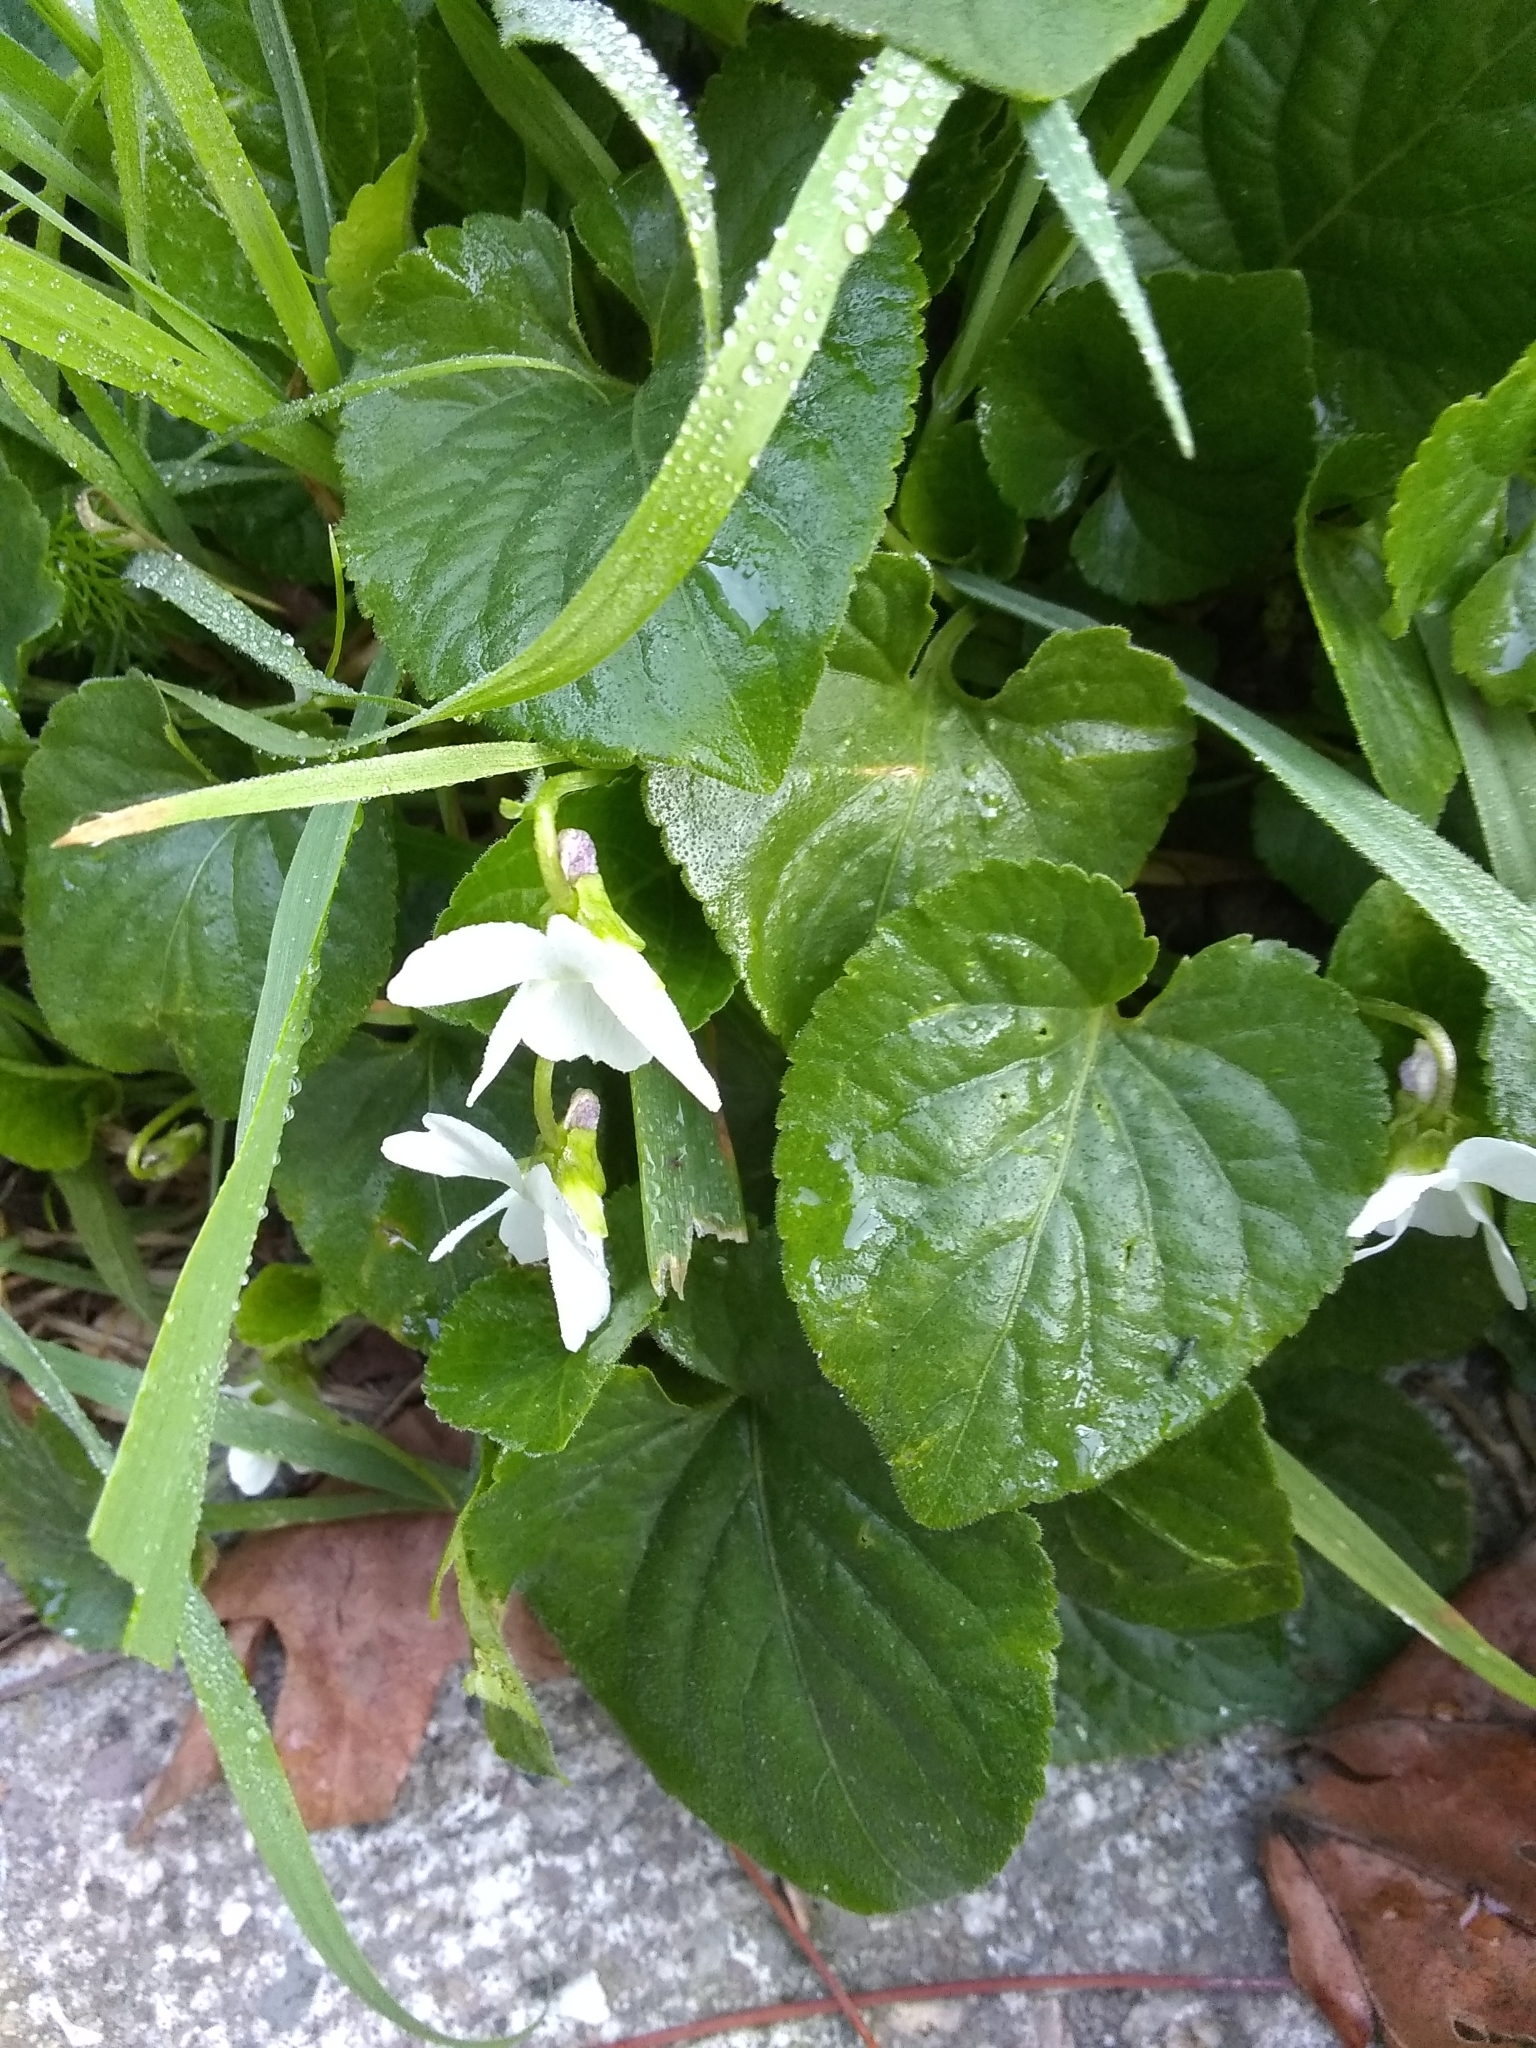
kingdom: Plantae
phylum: Tracheophyta
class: Magnoliopsida
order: Malpighiales
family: Violaceae
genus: Viola
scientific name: Viola odorata
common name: Sweet violet
